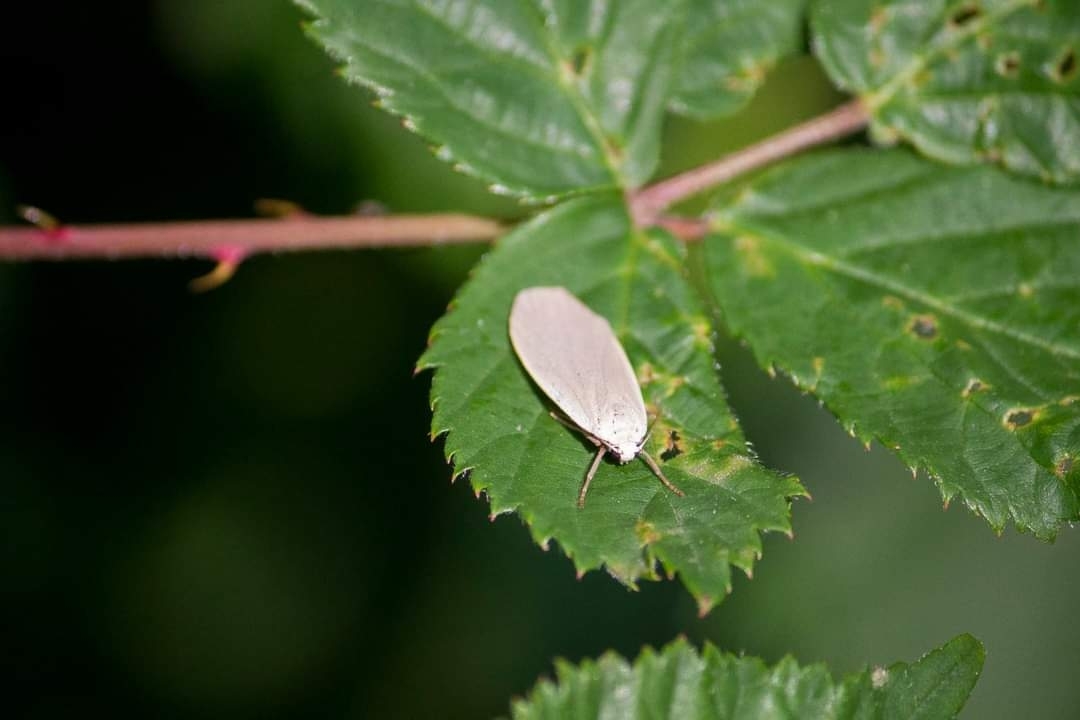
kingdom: Animalia
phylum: Arthropoda
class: Insecta
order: Lepidoptera
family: Erebidae
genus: Collita
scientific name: Collita griseola
